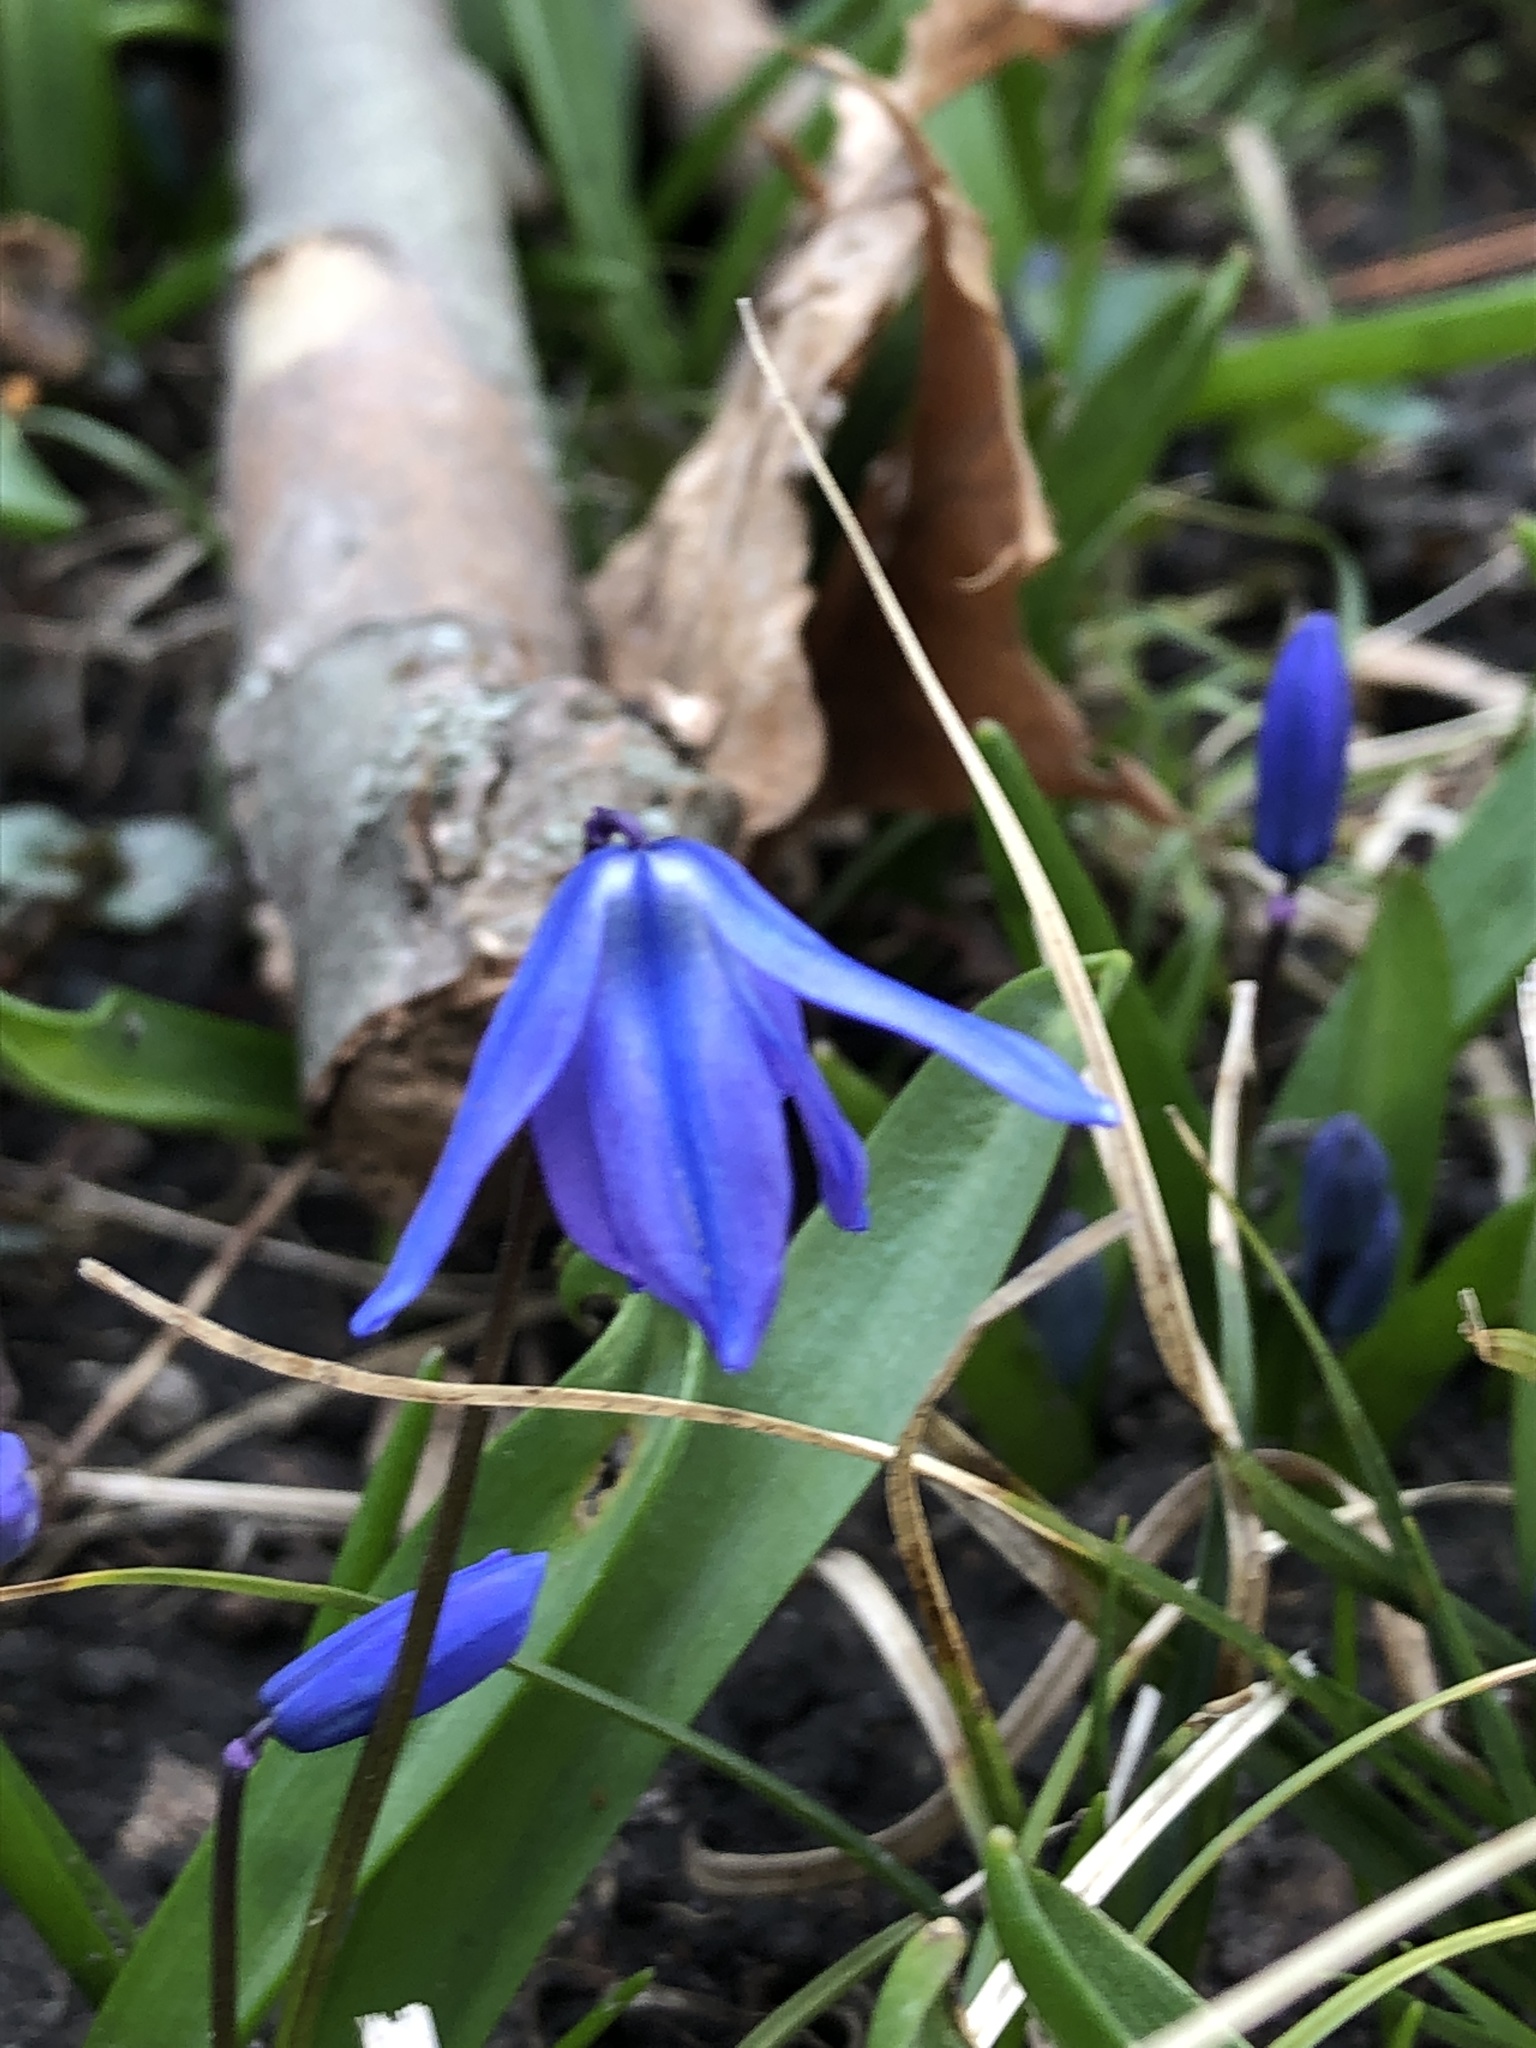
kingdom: Plantae
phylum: Tracheophyta
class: Liliopsida
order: Asparagales
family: Asparagaceae
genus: Scilla
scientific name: Scilla siberica
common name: Siberian squill
